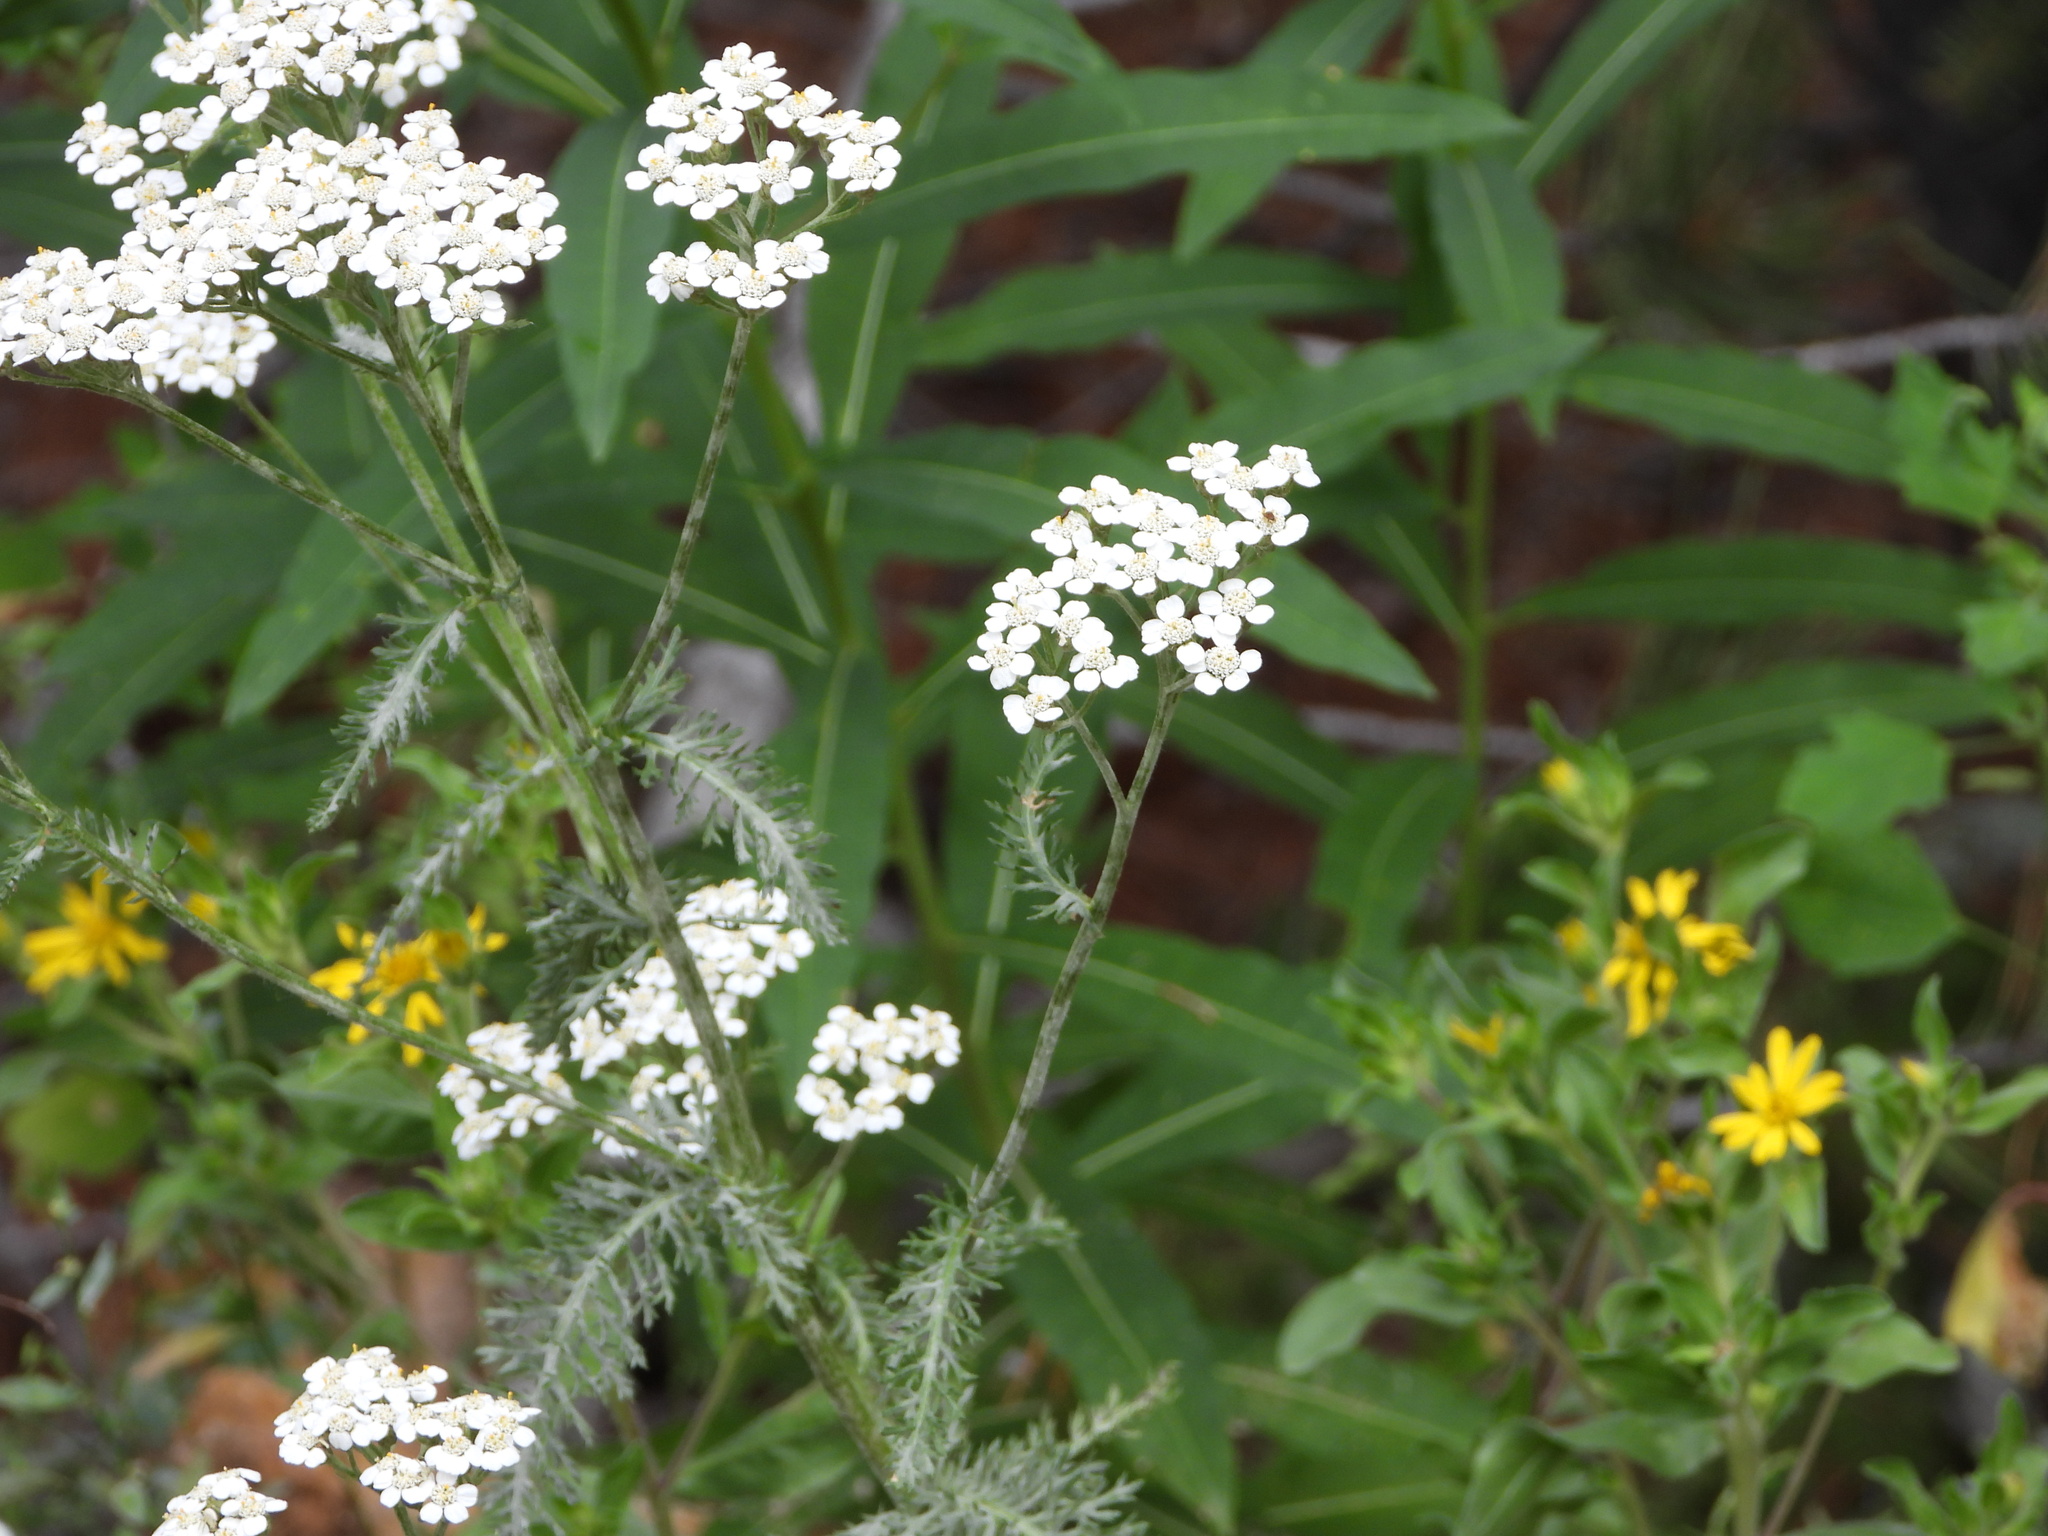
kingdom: Plantae
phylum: Tracheophyta
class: Magnoliopsida
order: Asterales
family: Asteraceae
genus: Achillea
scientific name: Achillea millefolium
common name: Yarrow
